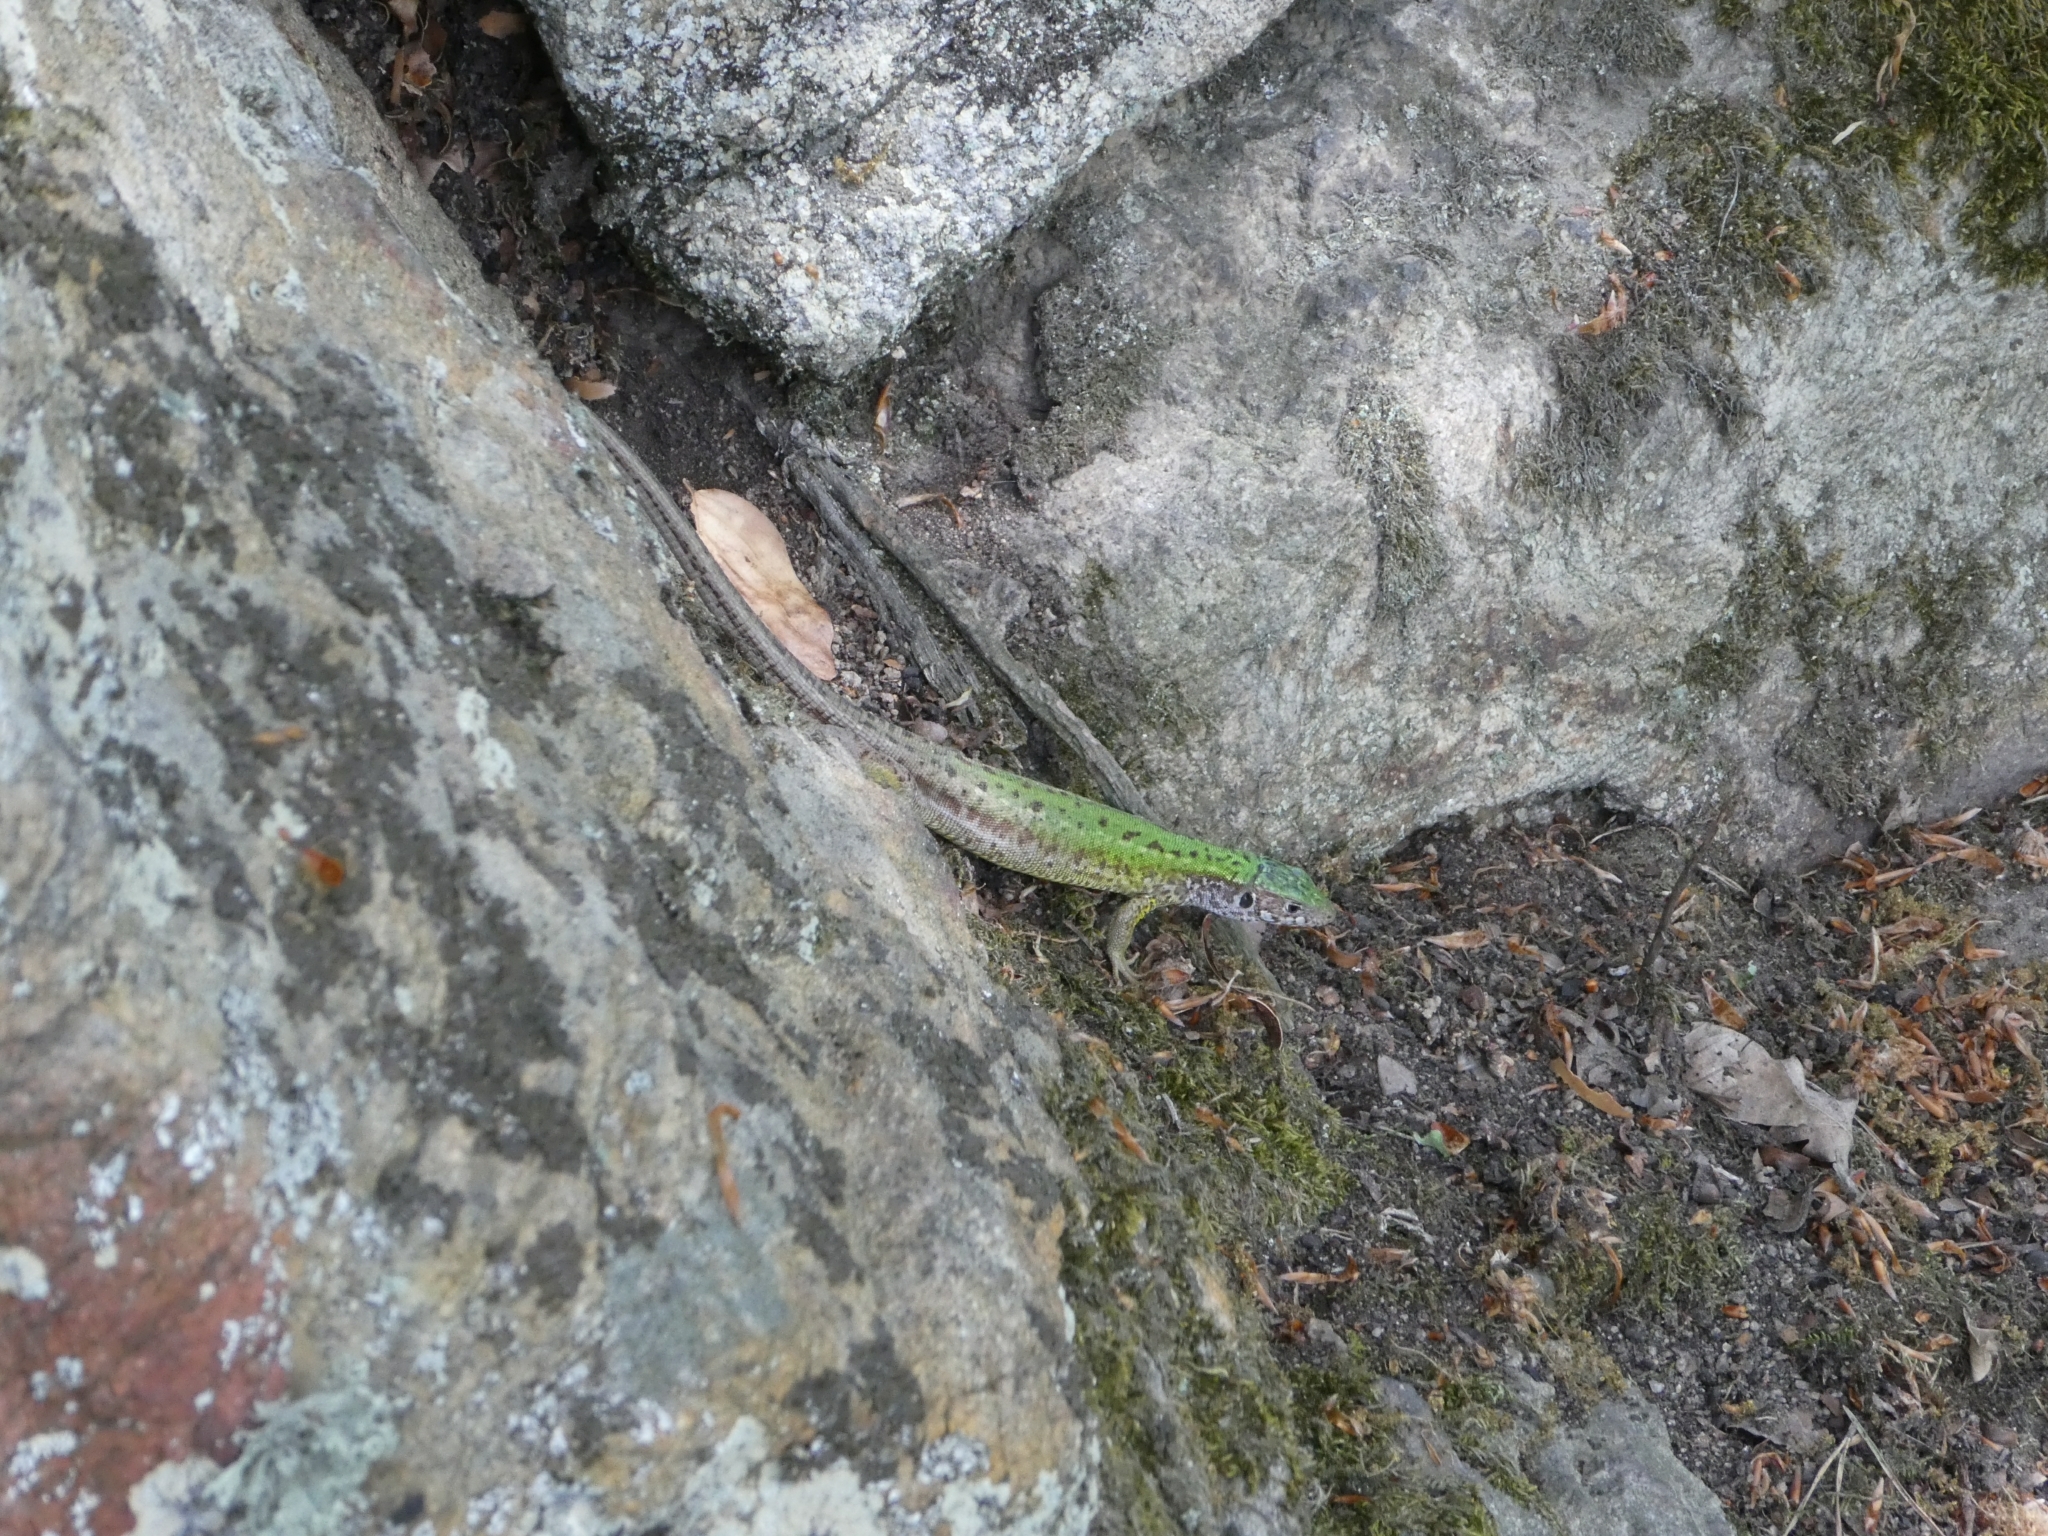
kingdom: Animalia
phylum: Chordata
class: Squamata
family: Lacertidae
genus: Lacerta
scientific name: Lacerta viridis
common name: European green lizard
